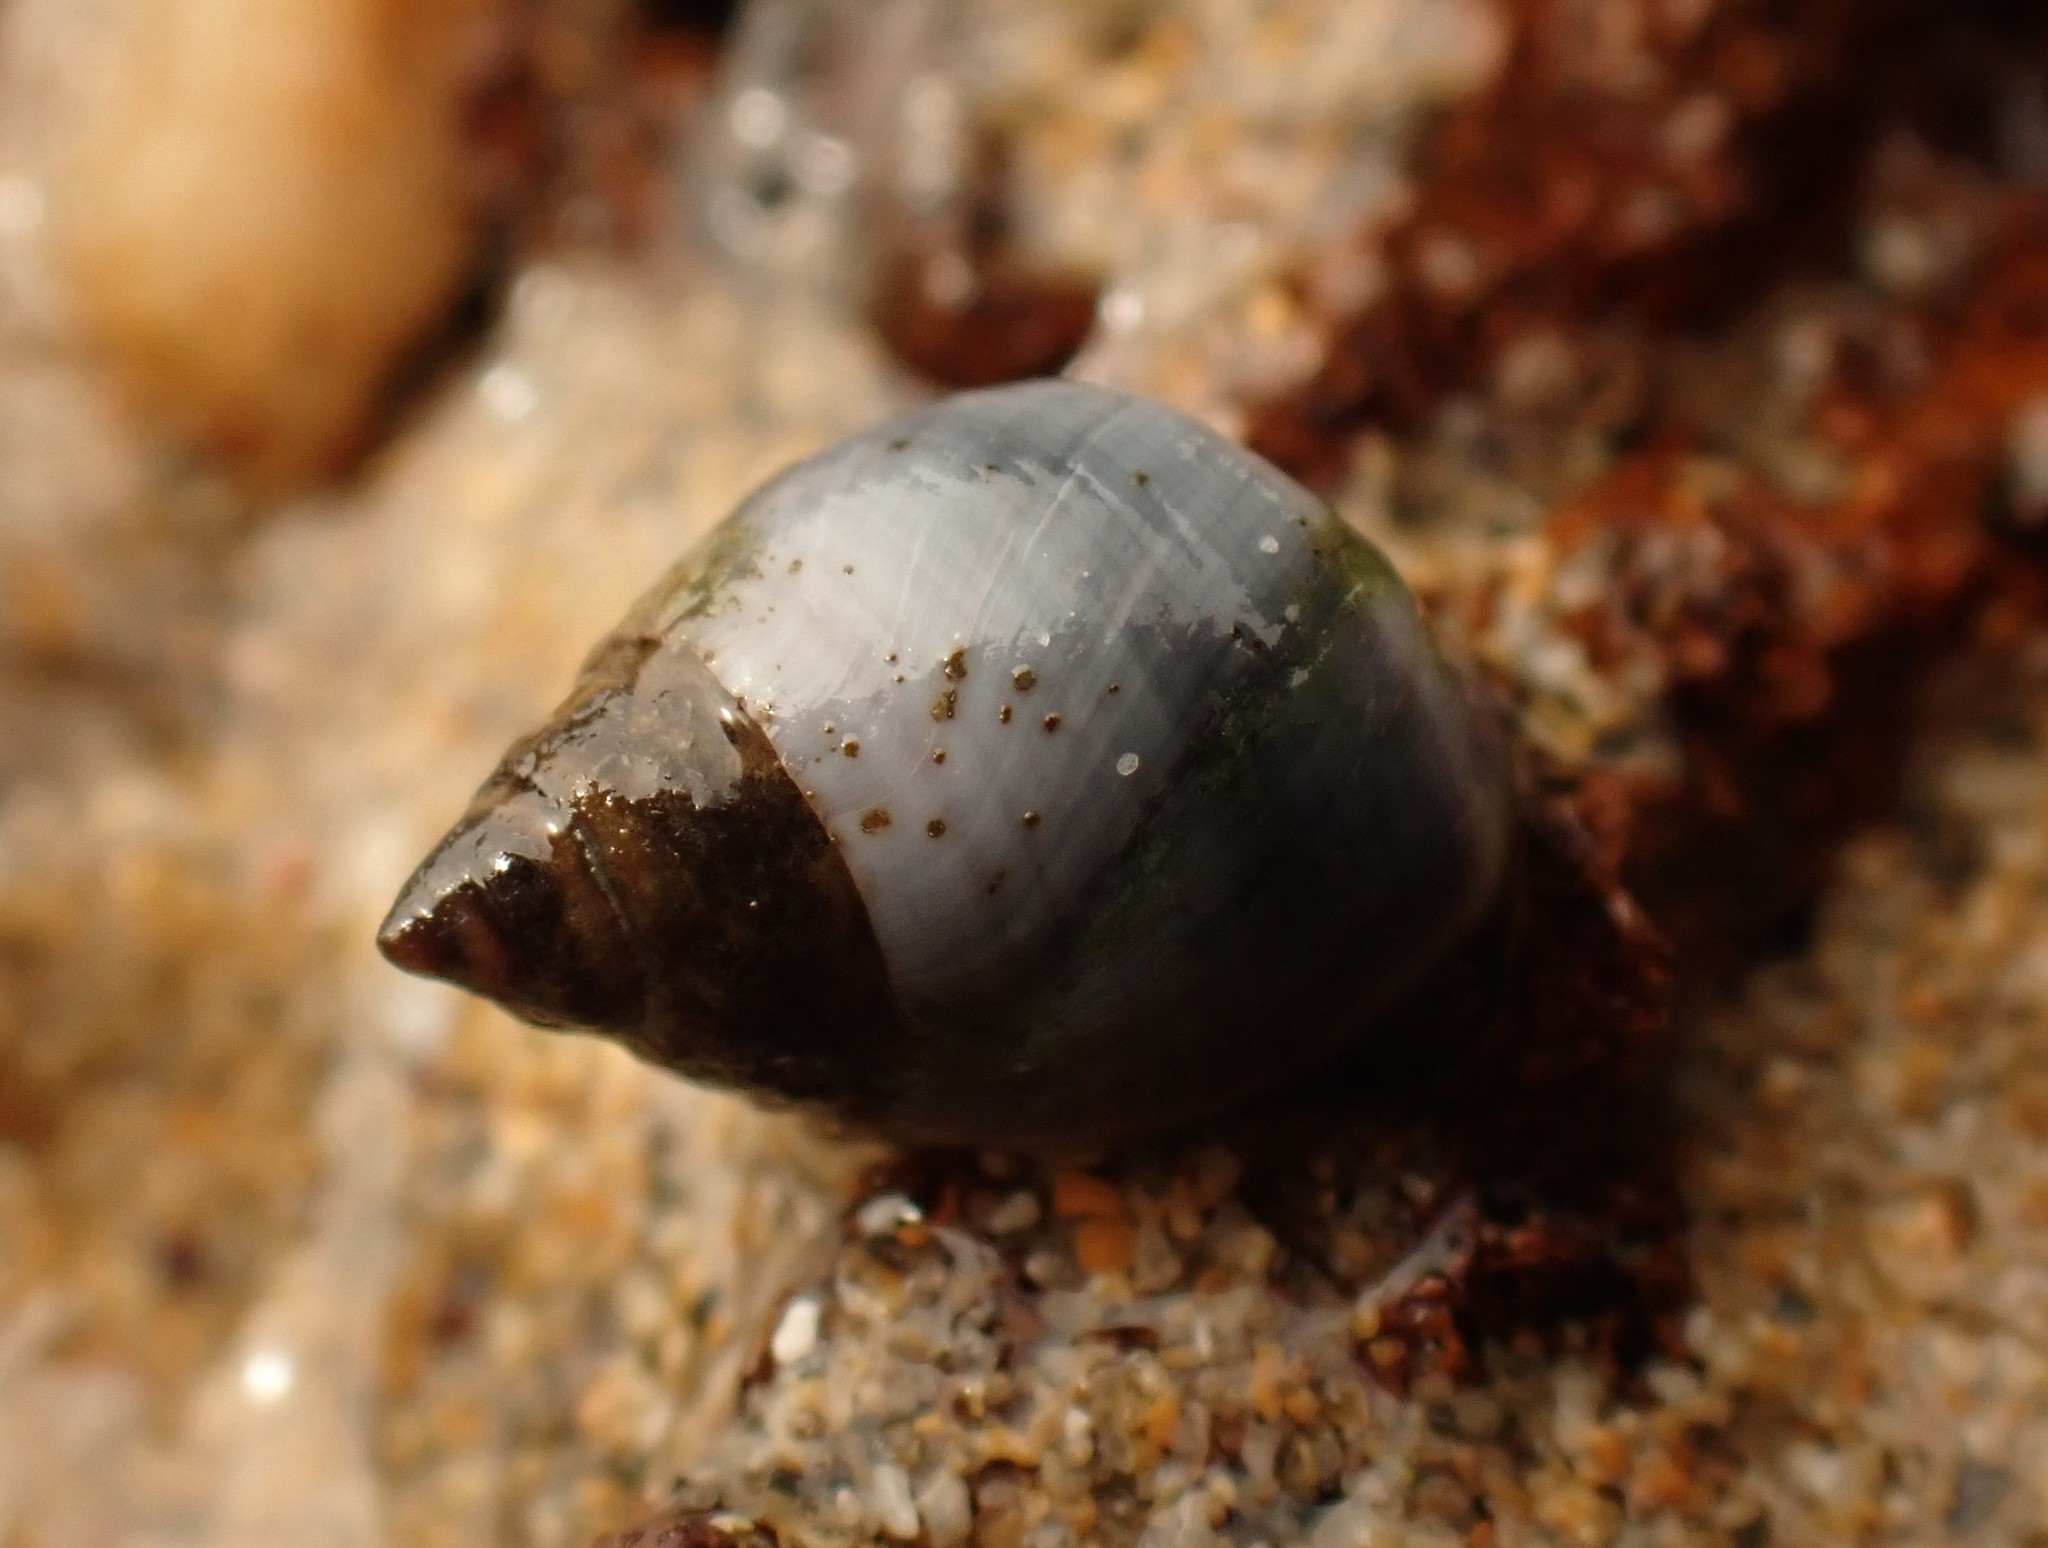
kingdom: Animalia
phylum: Mollusca
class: Gastropoda
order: Littorinimorpha
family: Littorinidae
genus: Austrolittorina
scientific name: Austrolittorina unifasciata
